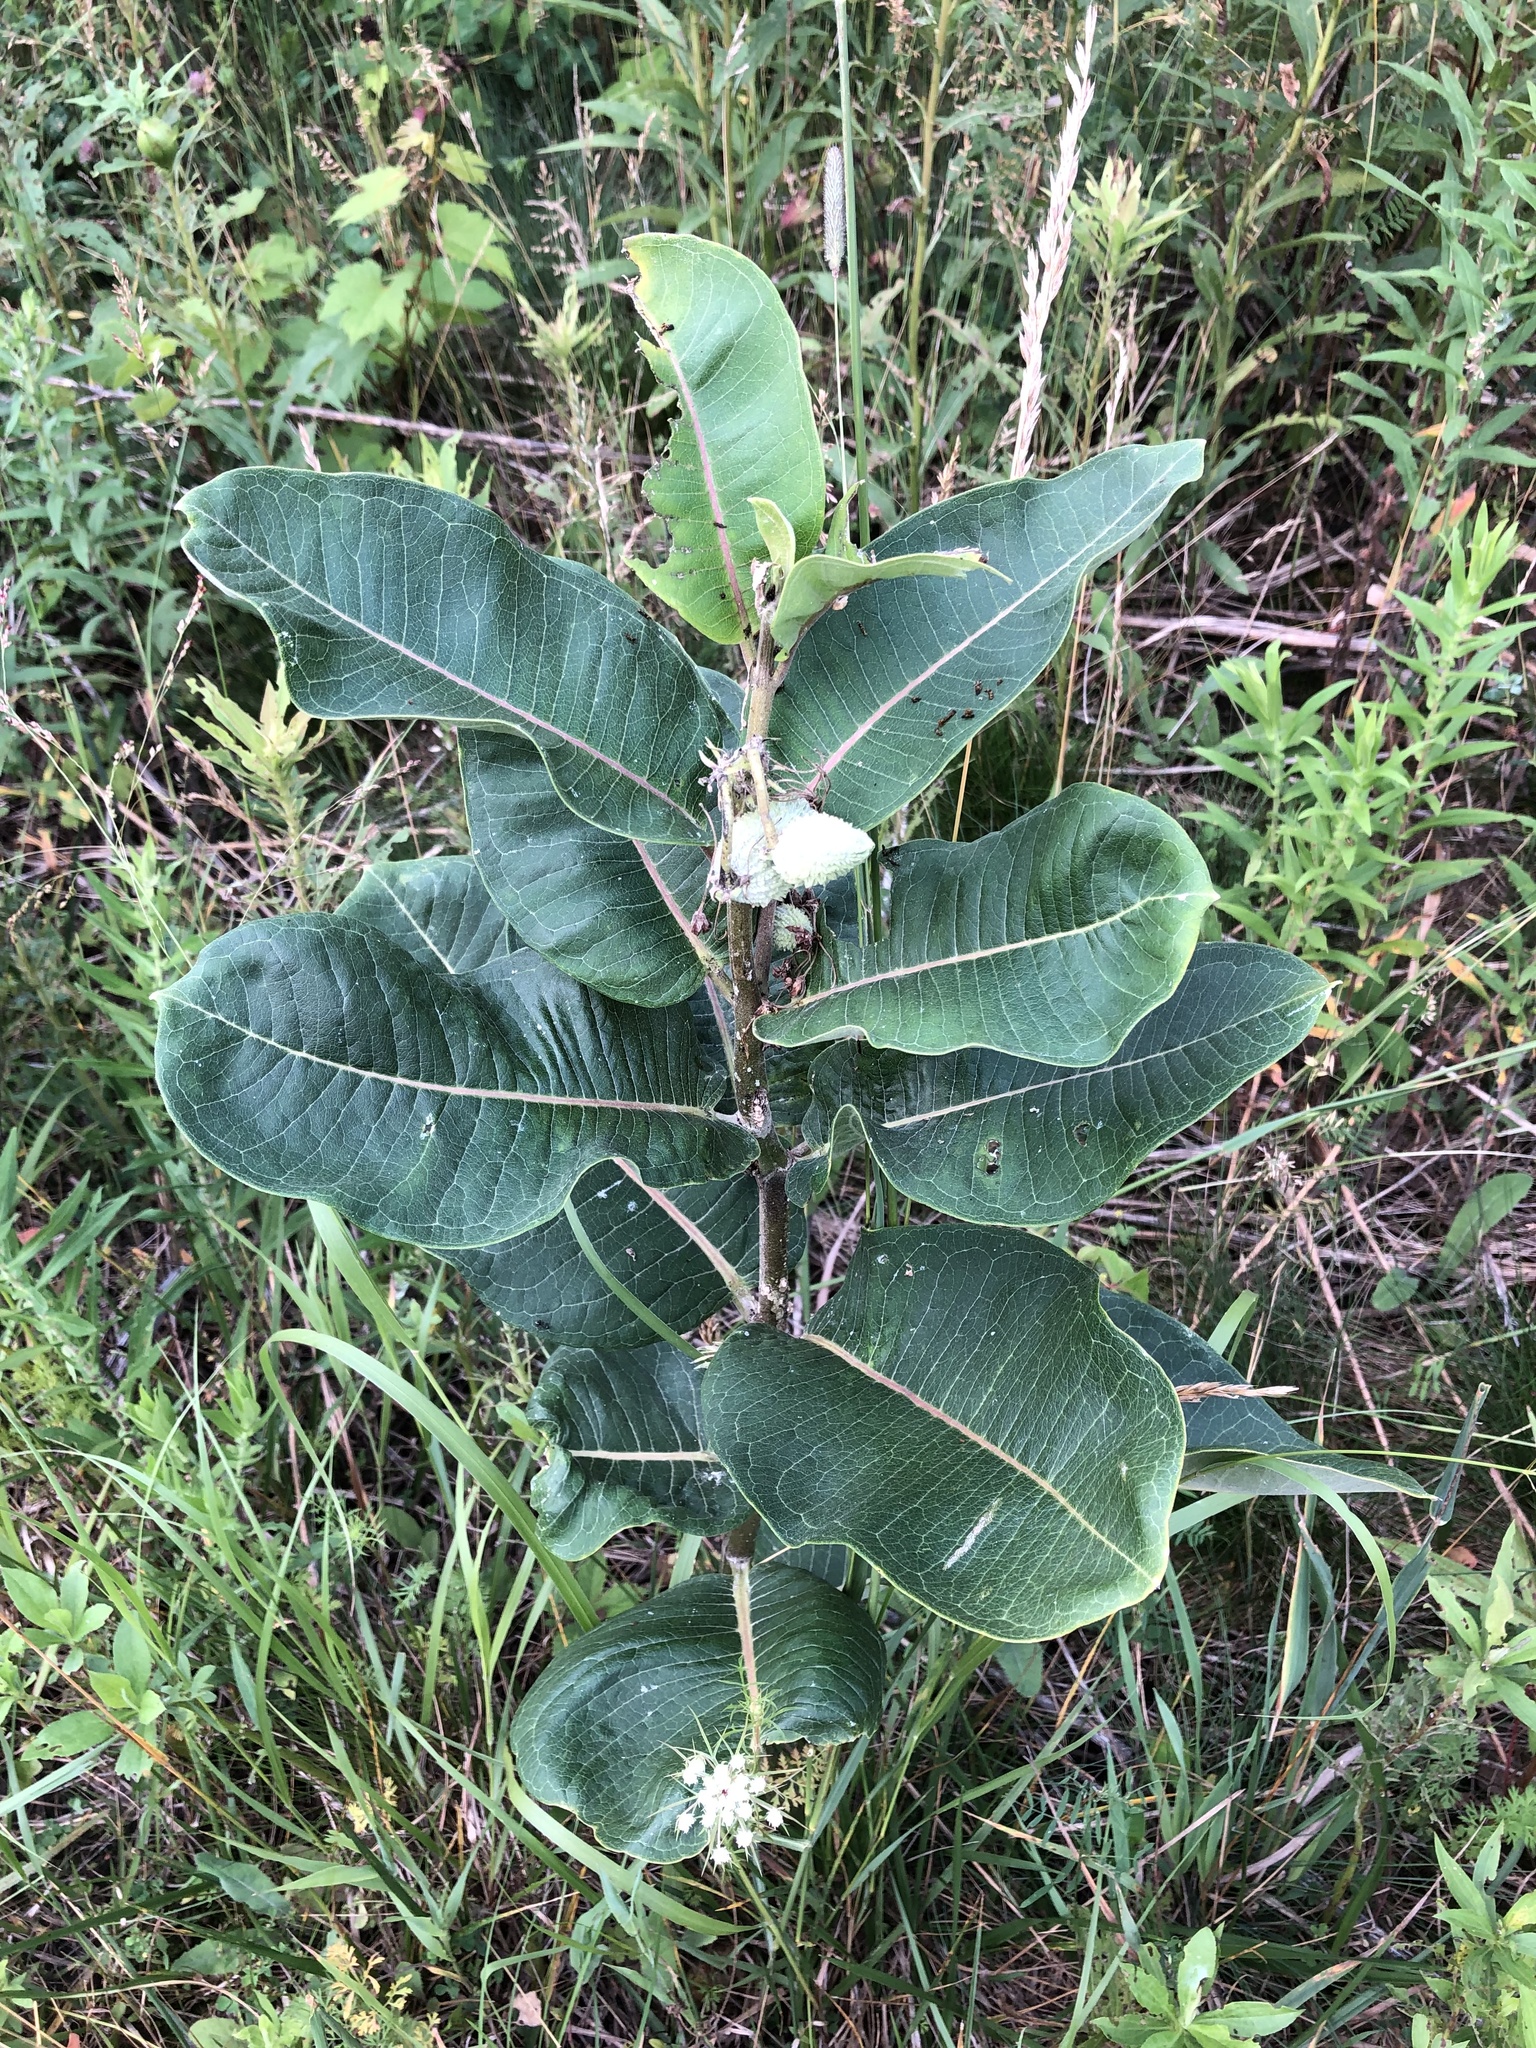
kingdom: Plantae
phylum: Tracheophyta
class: Magnoliopsida
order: Gentianales
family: Apocynaceae
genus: Asclepias
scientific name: Asclepias syriaca
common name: Common milkweed
